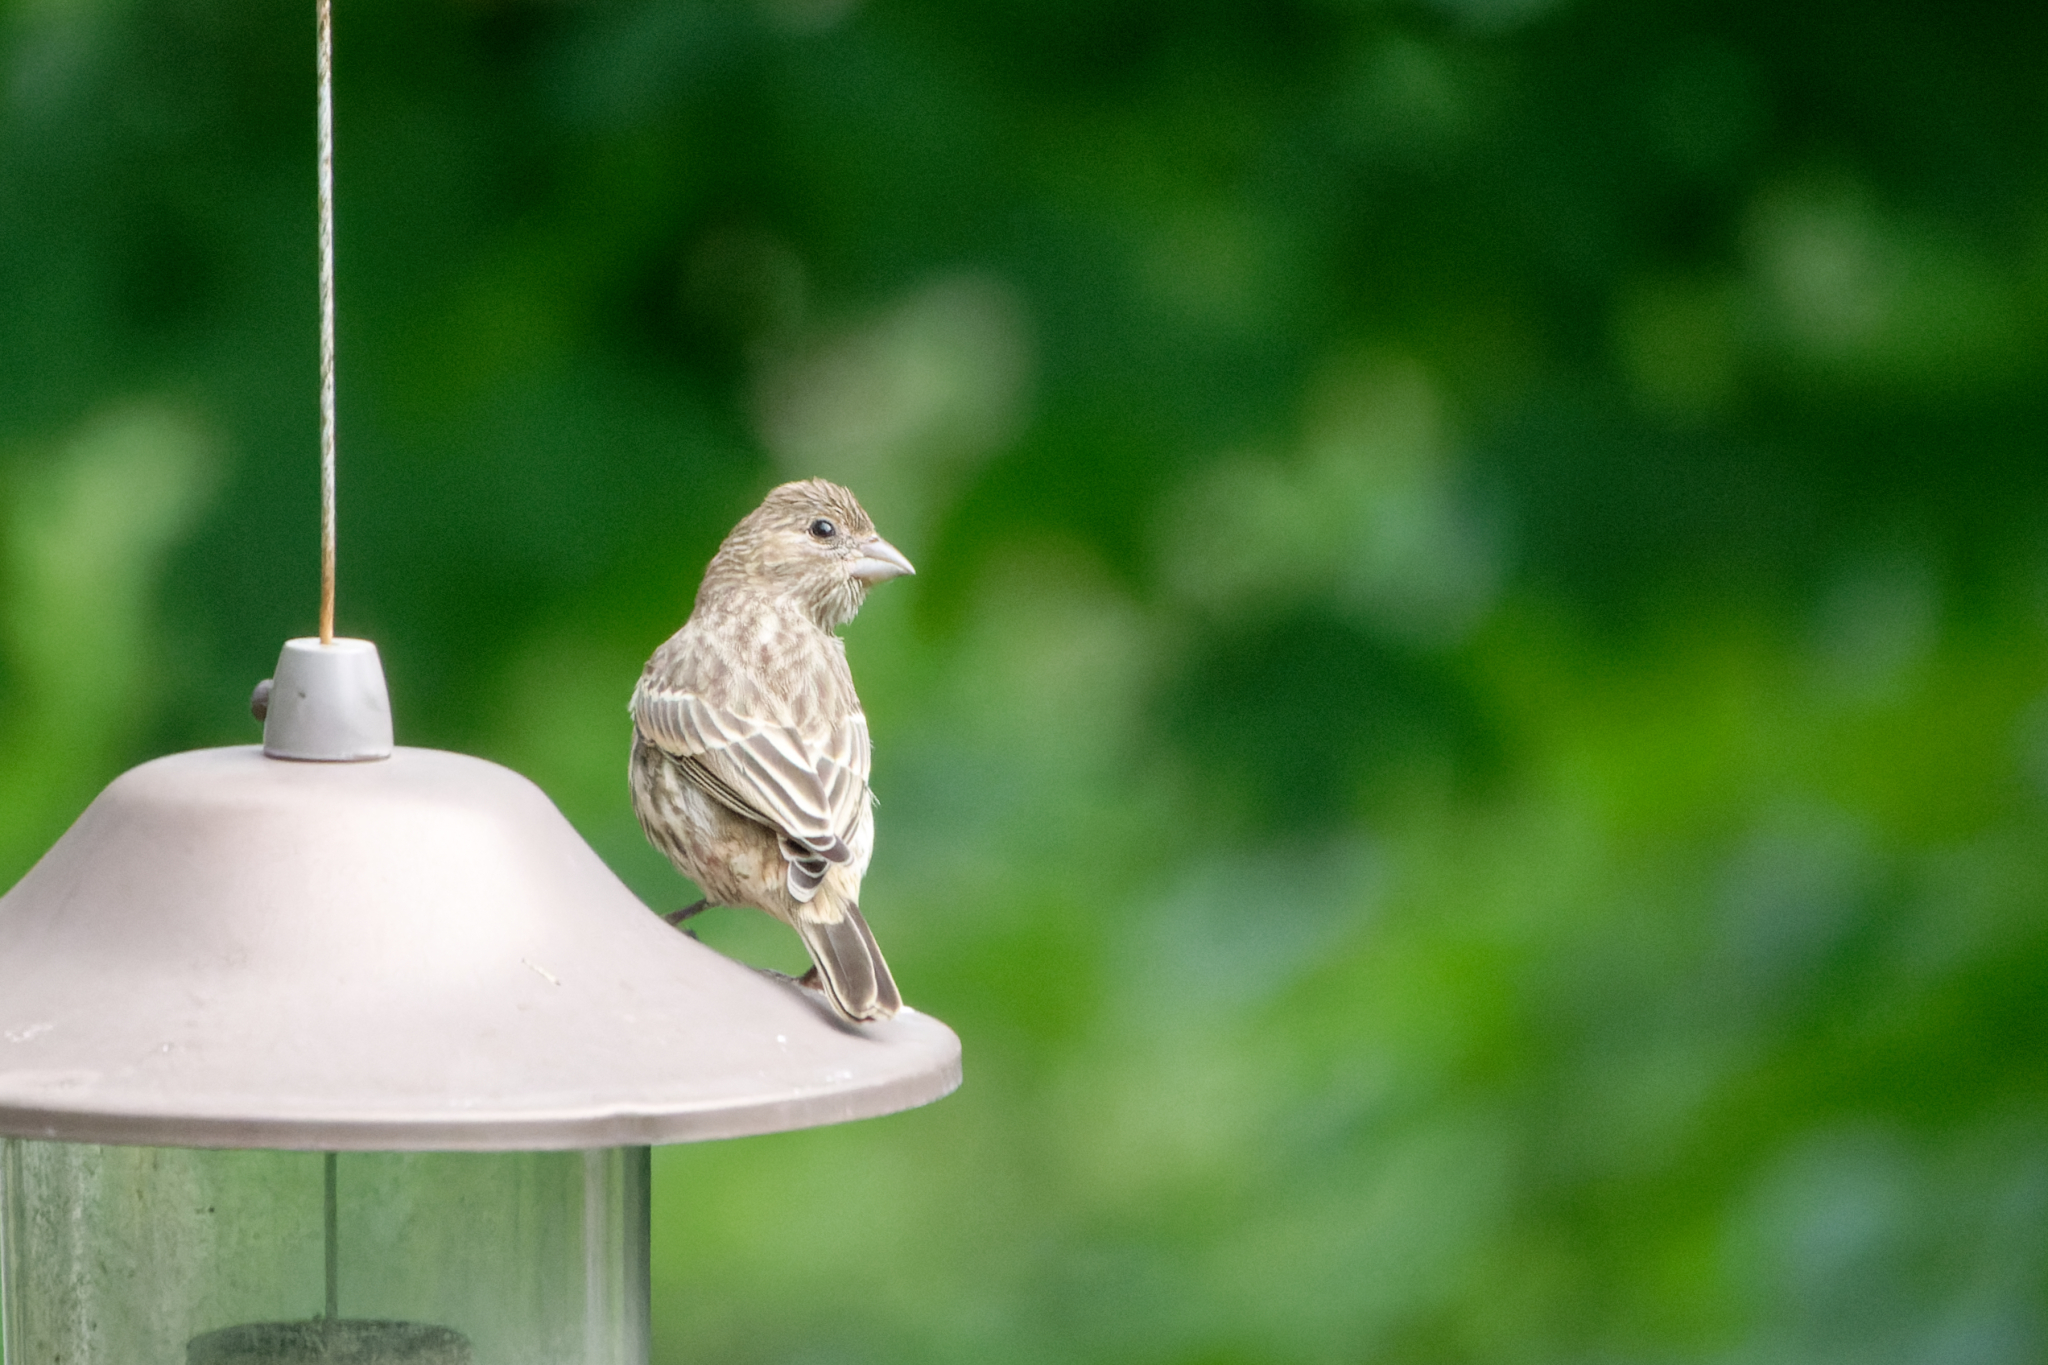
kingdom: Animalia
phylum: Chordata
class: Aves
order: Passeriformes
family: Fringillidae
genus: Haemorhous
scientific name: Haemorhous mexicanus
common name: House finch
